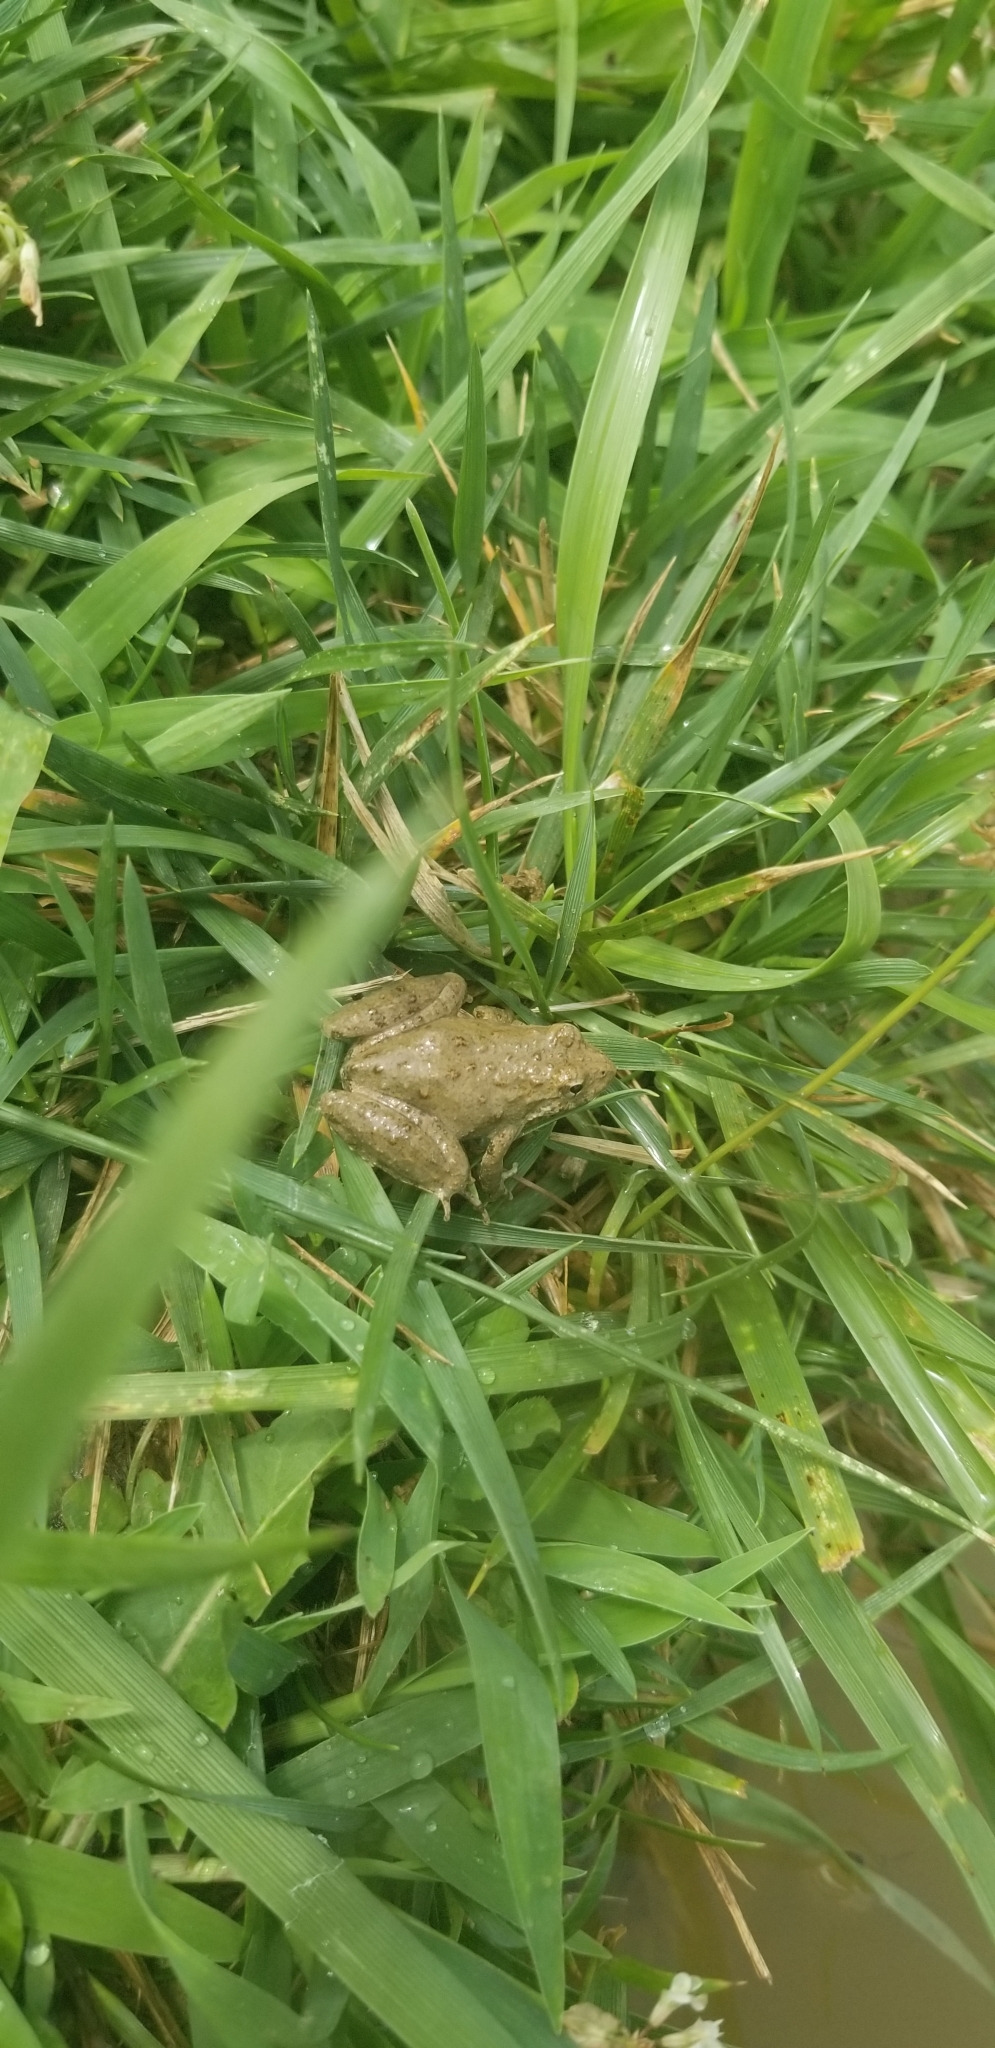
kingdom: Animalia
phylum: Chordata
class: Amphibia
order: Anura
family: Hylidae
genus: Acris
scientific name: Acris blanchardi
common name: Blanchard's cricket frog
